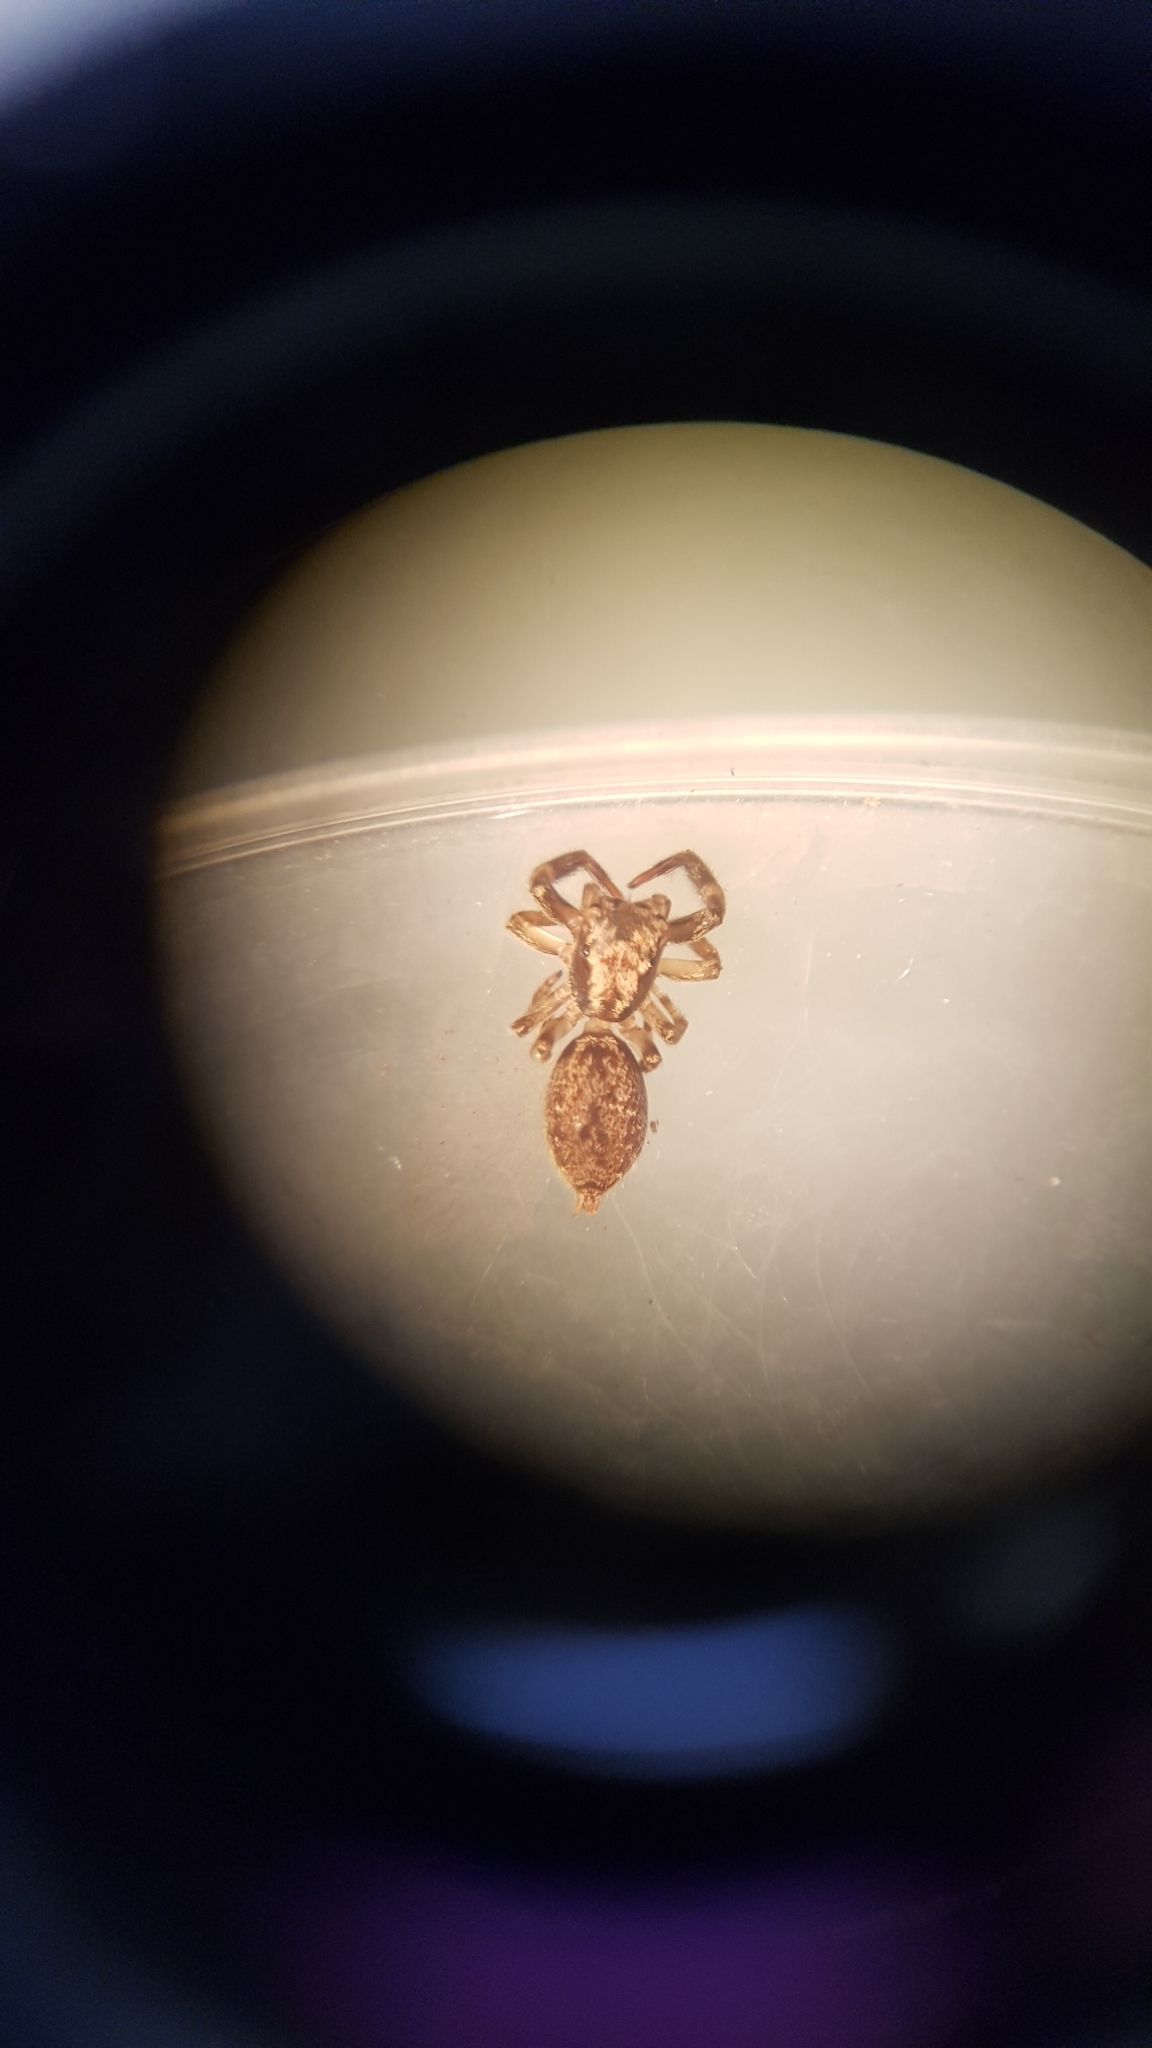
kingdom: Animalia
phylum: Arthropoda
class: Arachnida
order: Araneae
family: Salticidae
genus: Trite
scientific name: Trite auricoma
